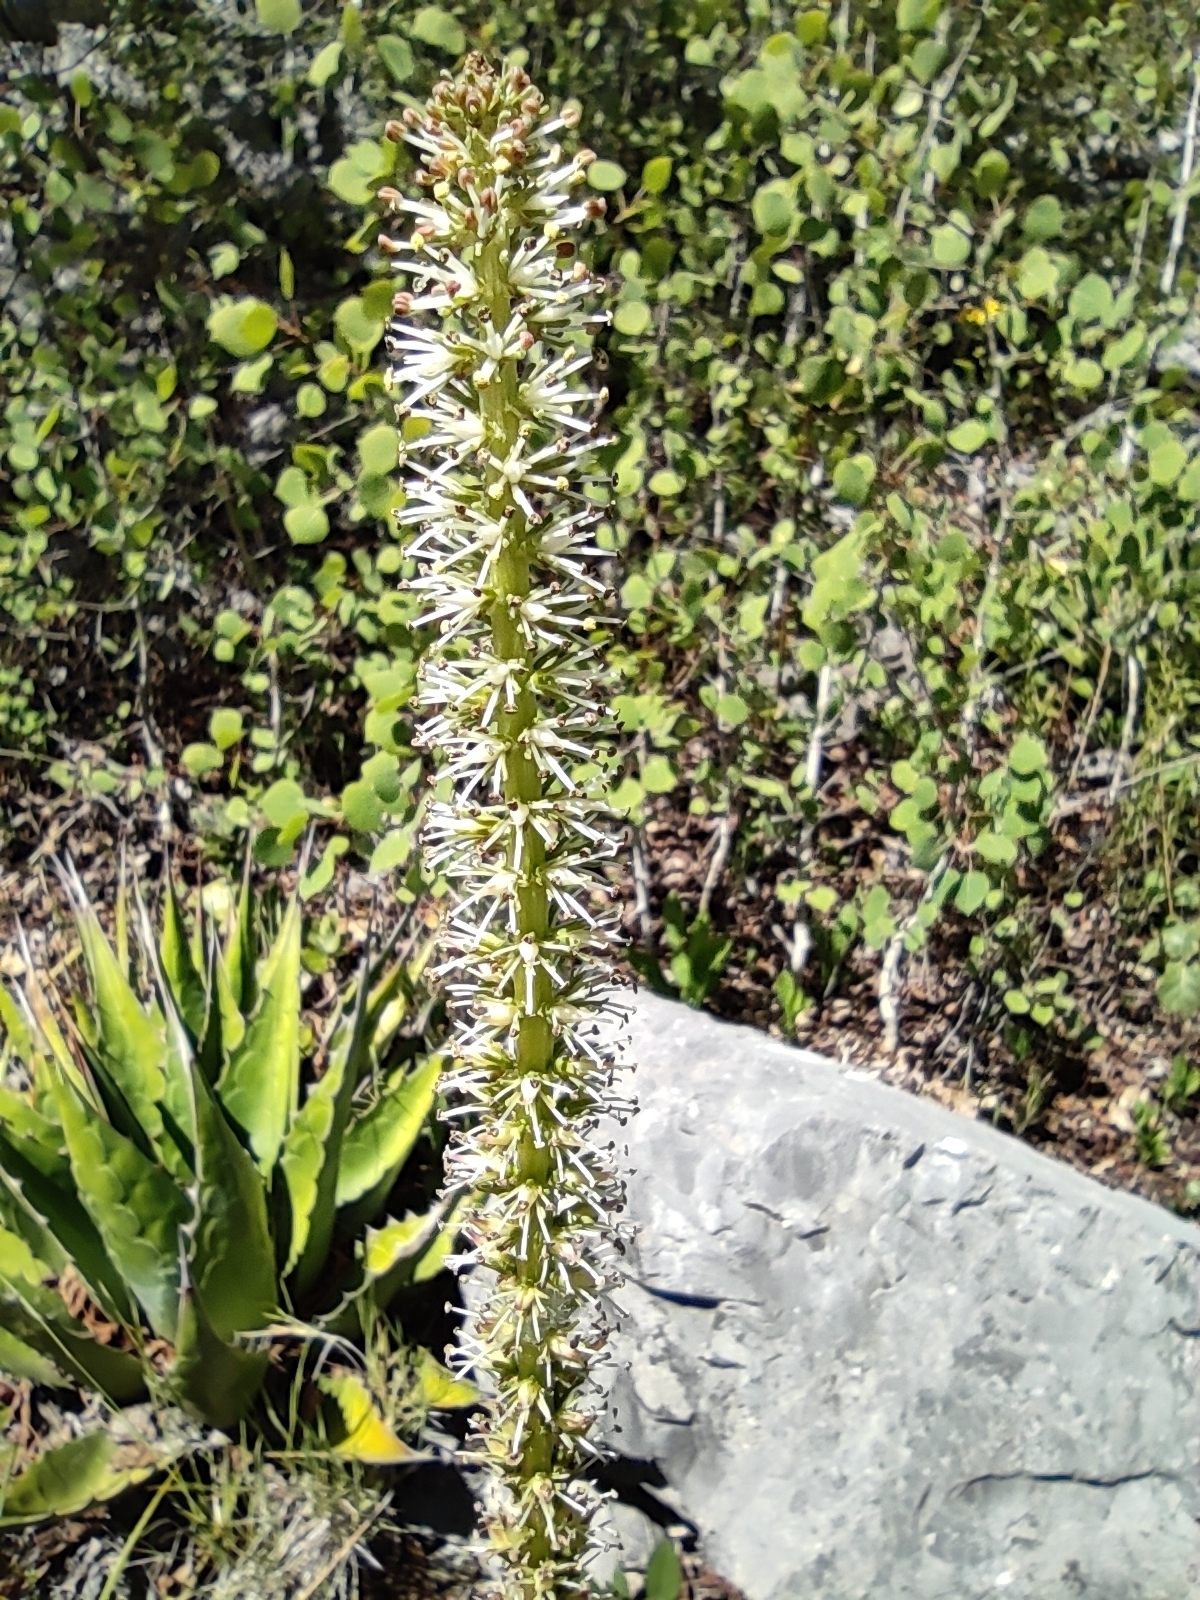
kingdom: Plantae
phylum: Tracheophyta
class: Liliopsida
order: Liliales
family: Melanthiaceae
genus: Schoenocaulon
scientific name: Schoenocaulon texanum
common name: Texas feather-shank
